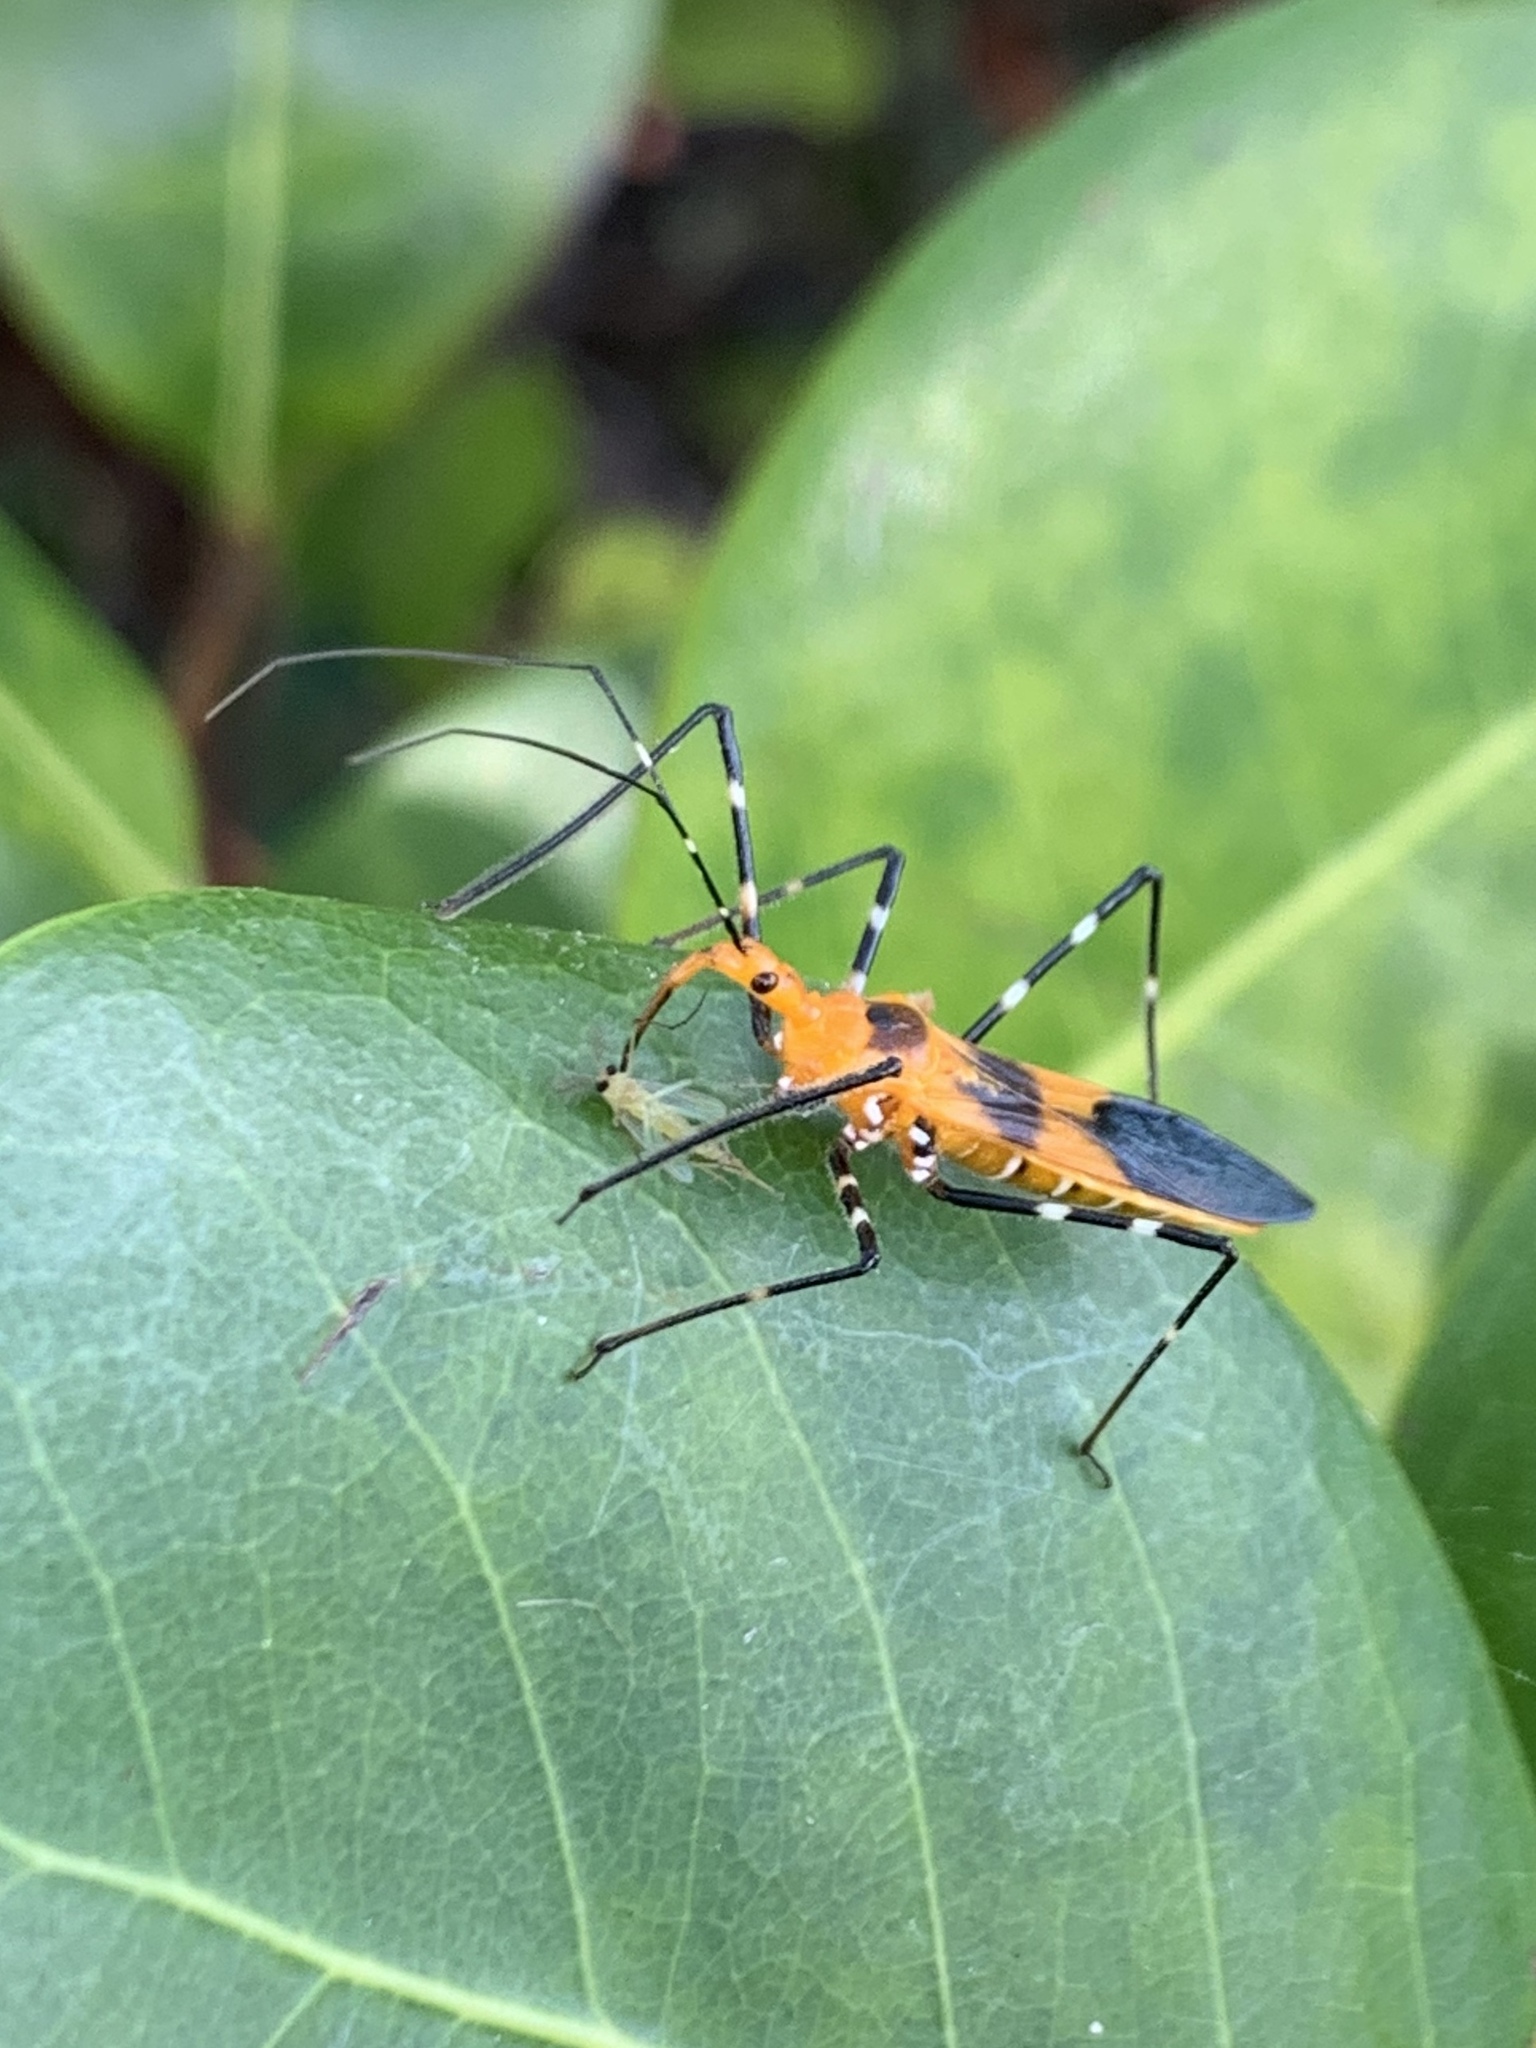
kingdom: Animalia
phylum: Arthropoda
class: Insecta
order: Hemiptera
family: Reduviidae
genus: Zelus
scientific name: Zelus longipes
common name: Milkweed assassin bug
